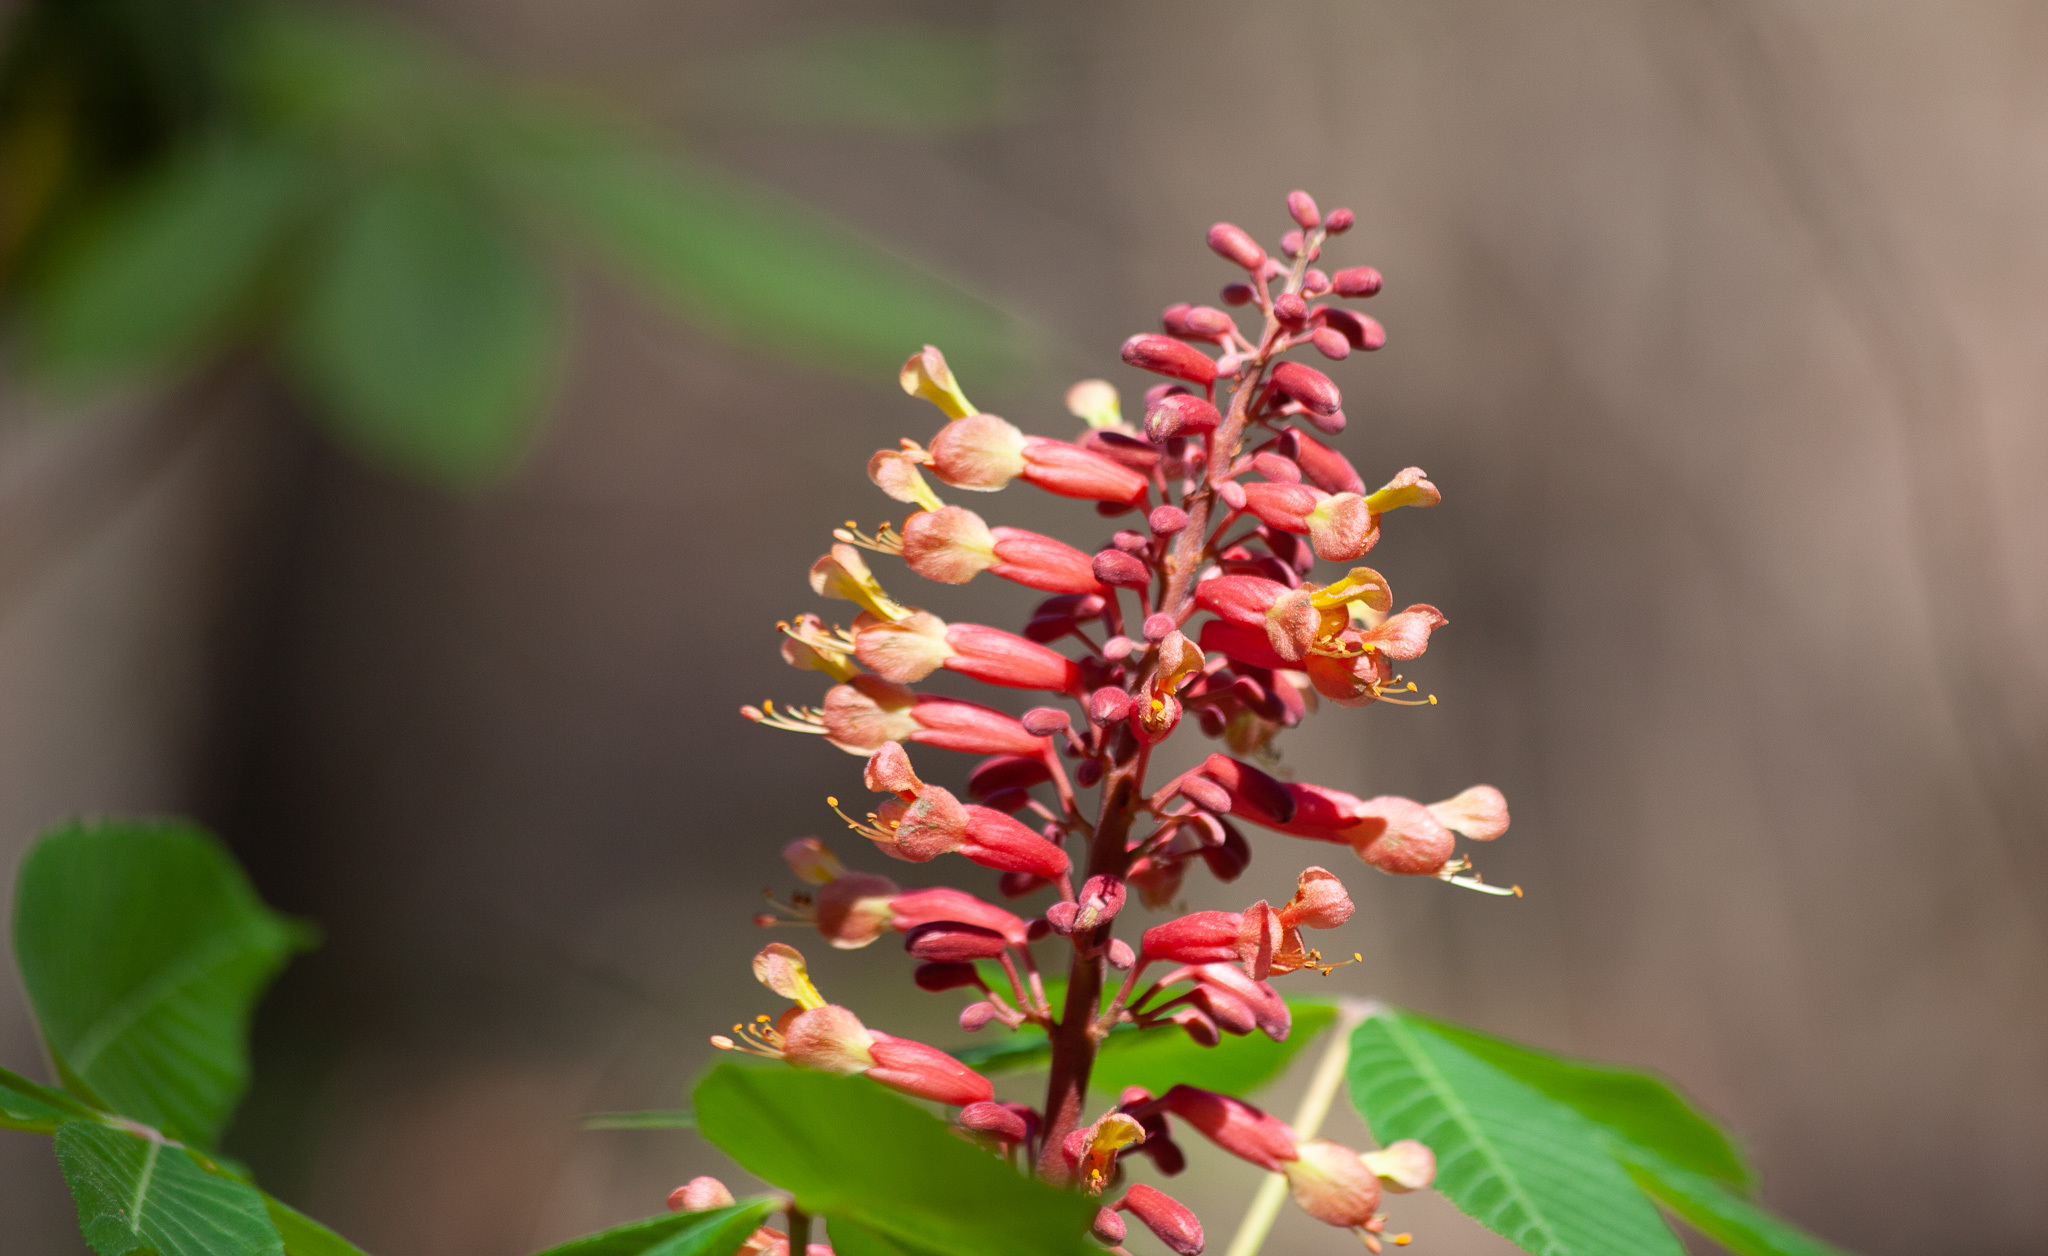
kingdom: Plantae
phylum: Tracheophyta
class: Magnoliopsida
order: Sapindales
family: Sapindaceae
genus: Aesculus
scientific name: Aesculus pavia
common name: Red buckeye
